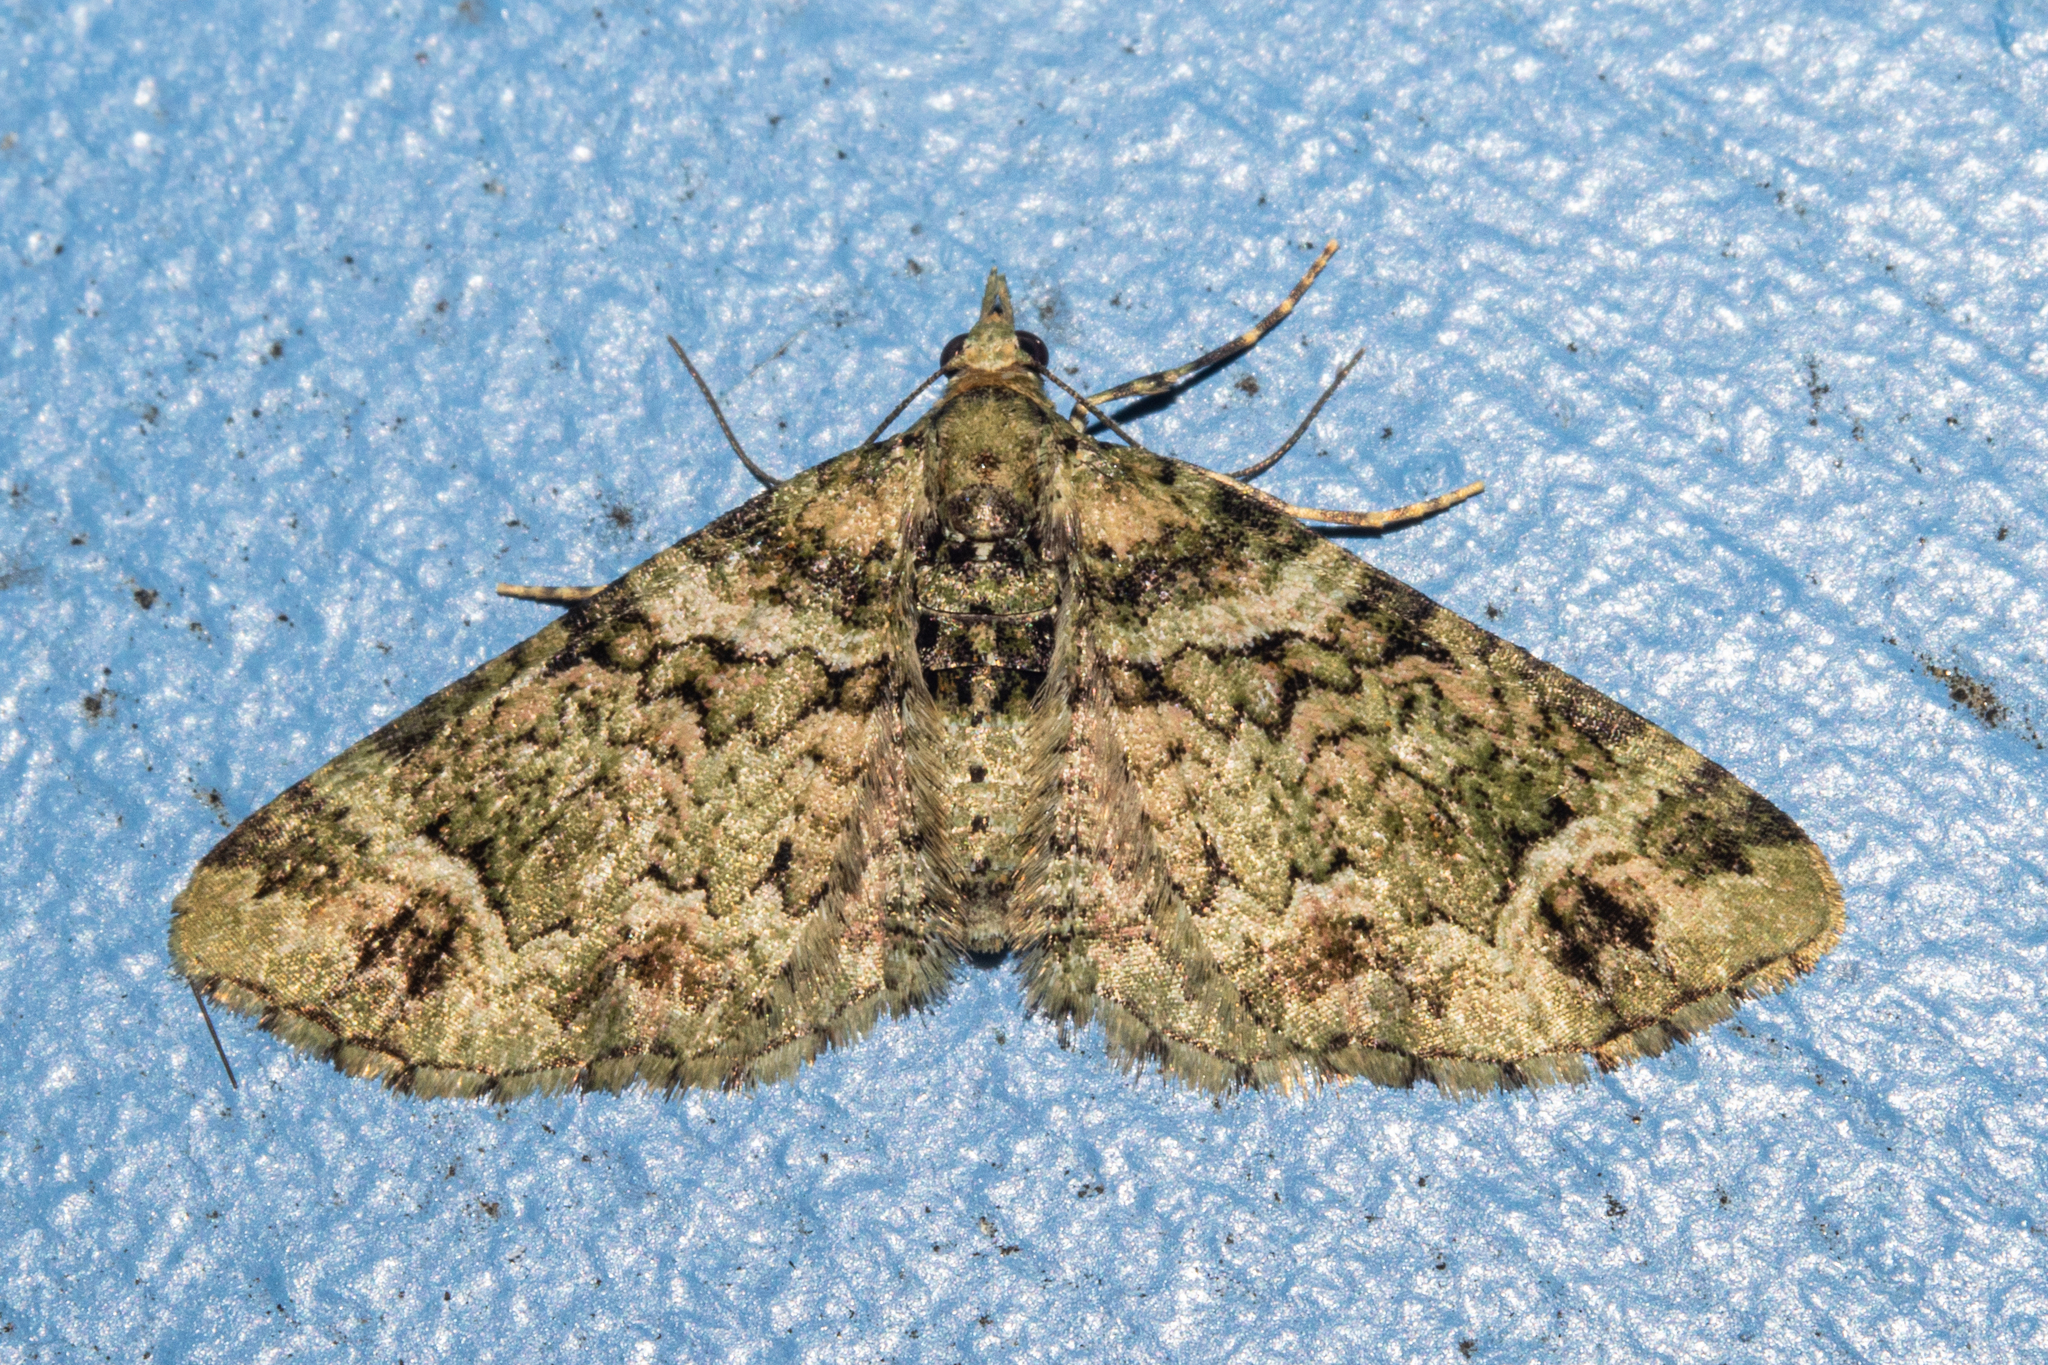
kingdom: Animalia
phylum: Arthropoda
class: Insecta
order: Lepidoptera
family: Geometridae
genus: Pasiphila
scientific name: Pasiphila urticae
